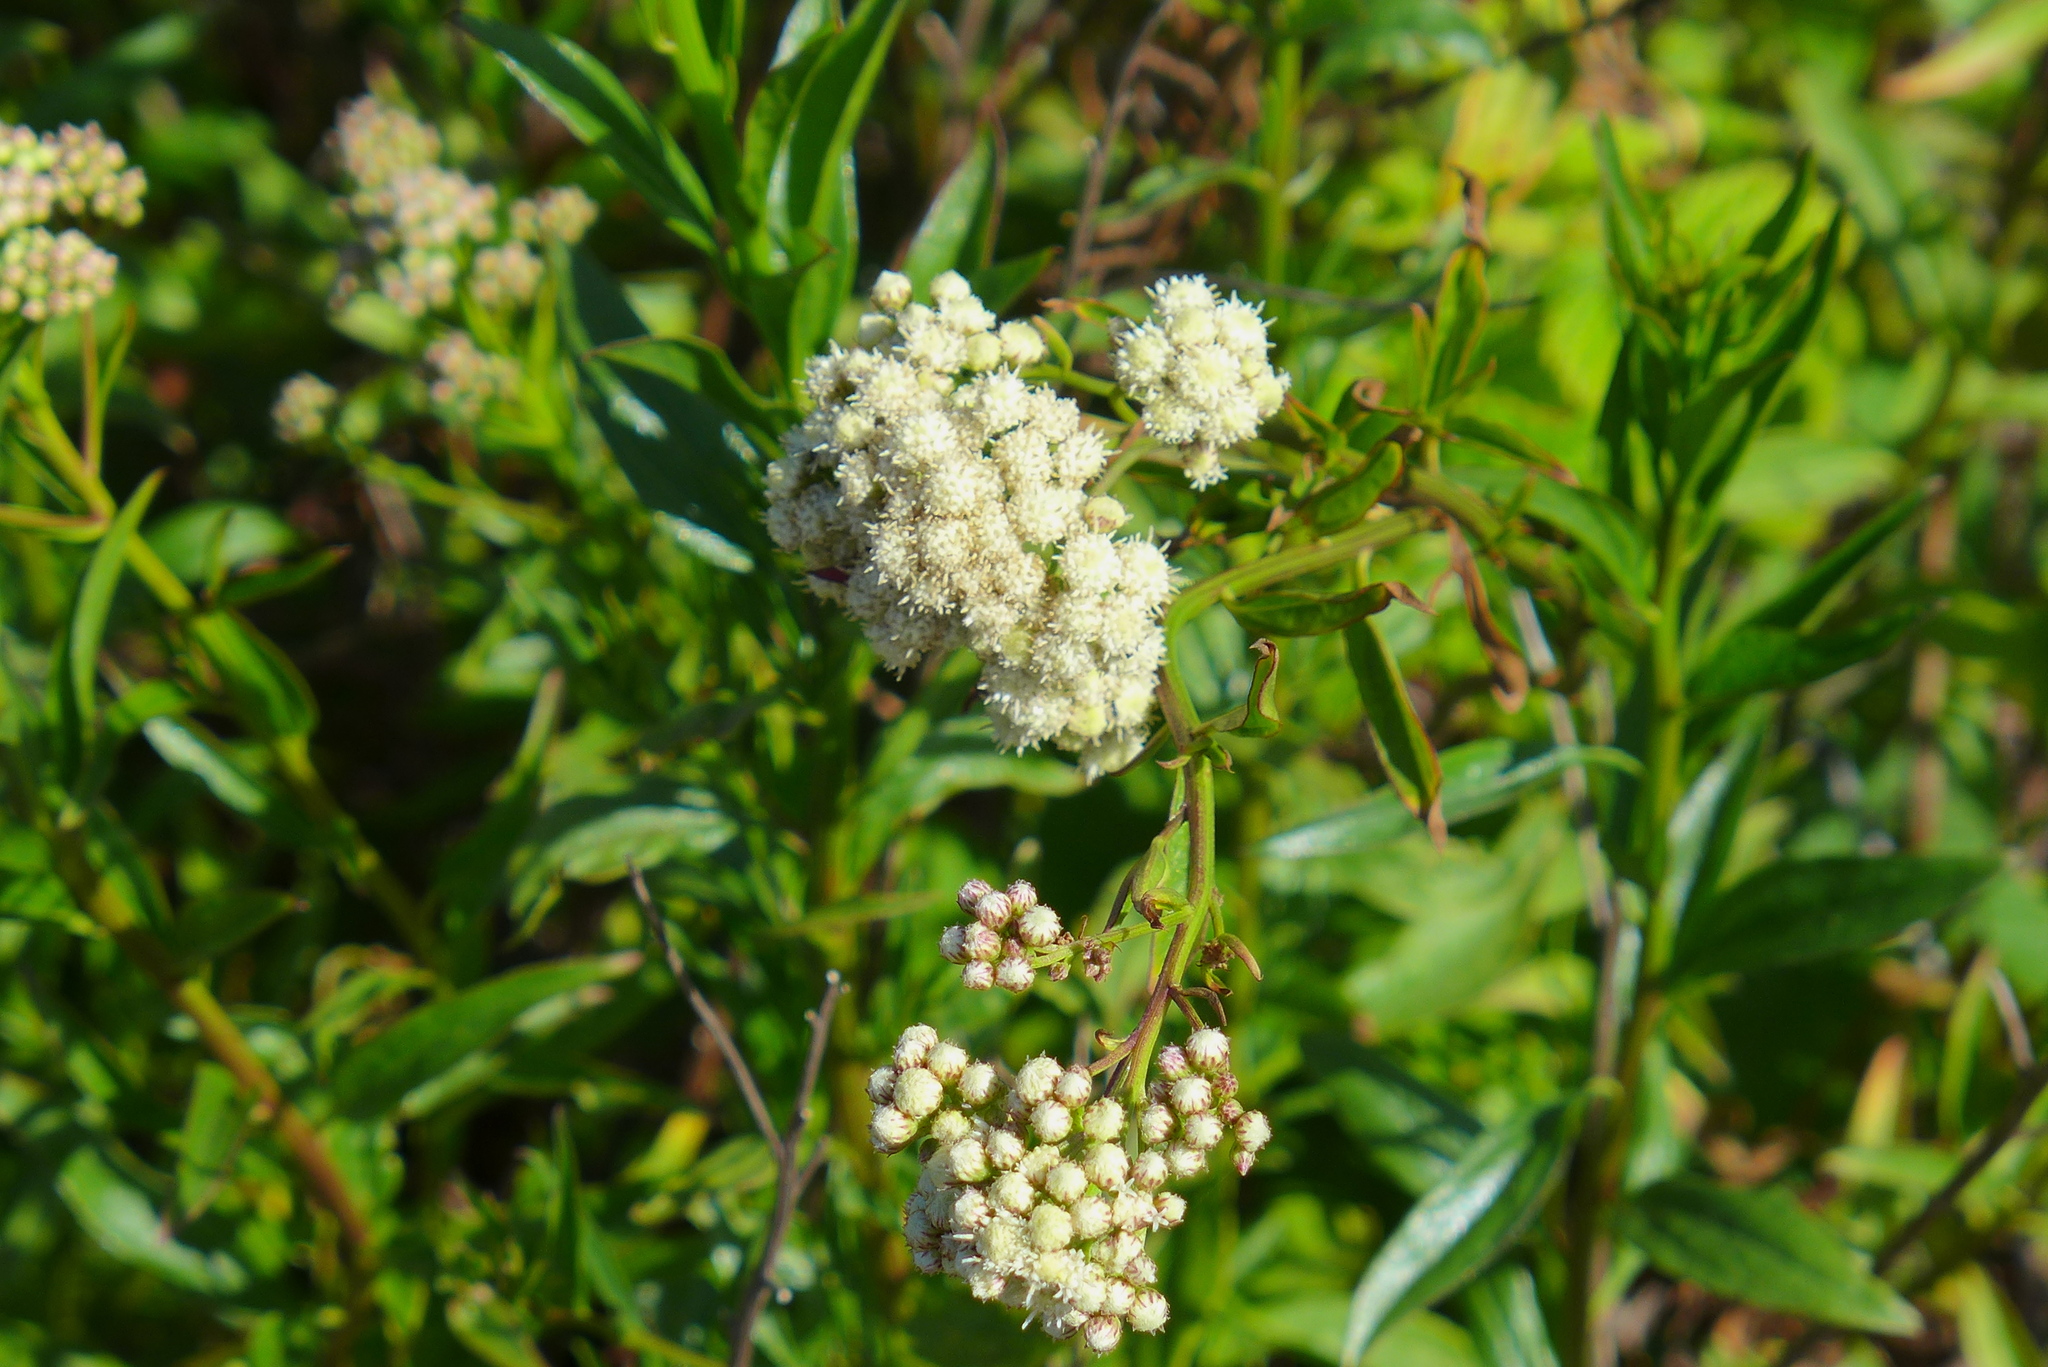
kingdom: Plantae
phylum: Tracheophyta
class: Magnoliopsida
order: Asterales
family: Asteraceae
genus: Baccharis
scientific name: Baccharis glutinosa
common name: Saltmarsh baccharis
